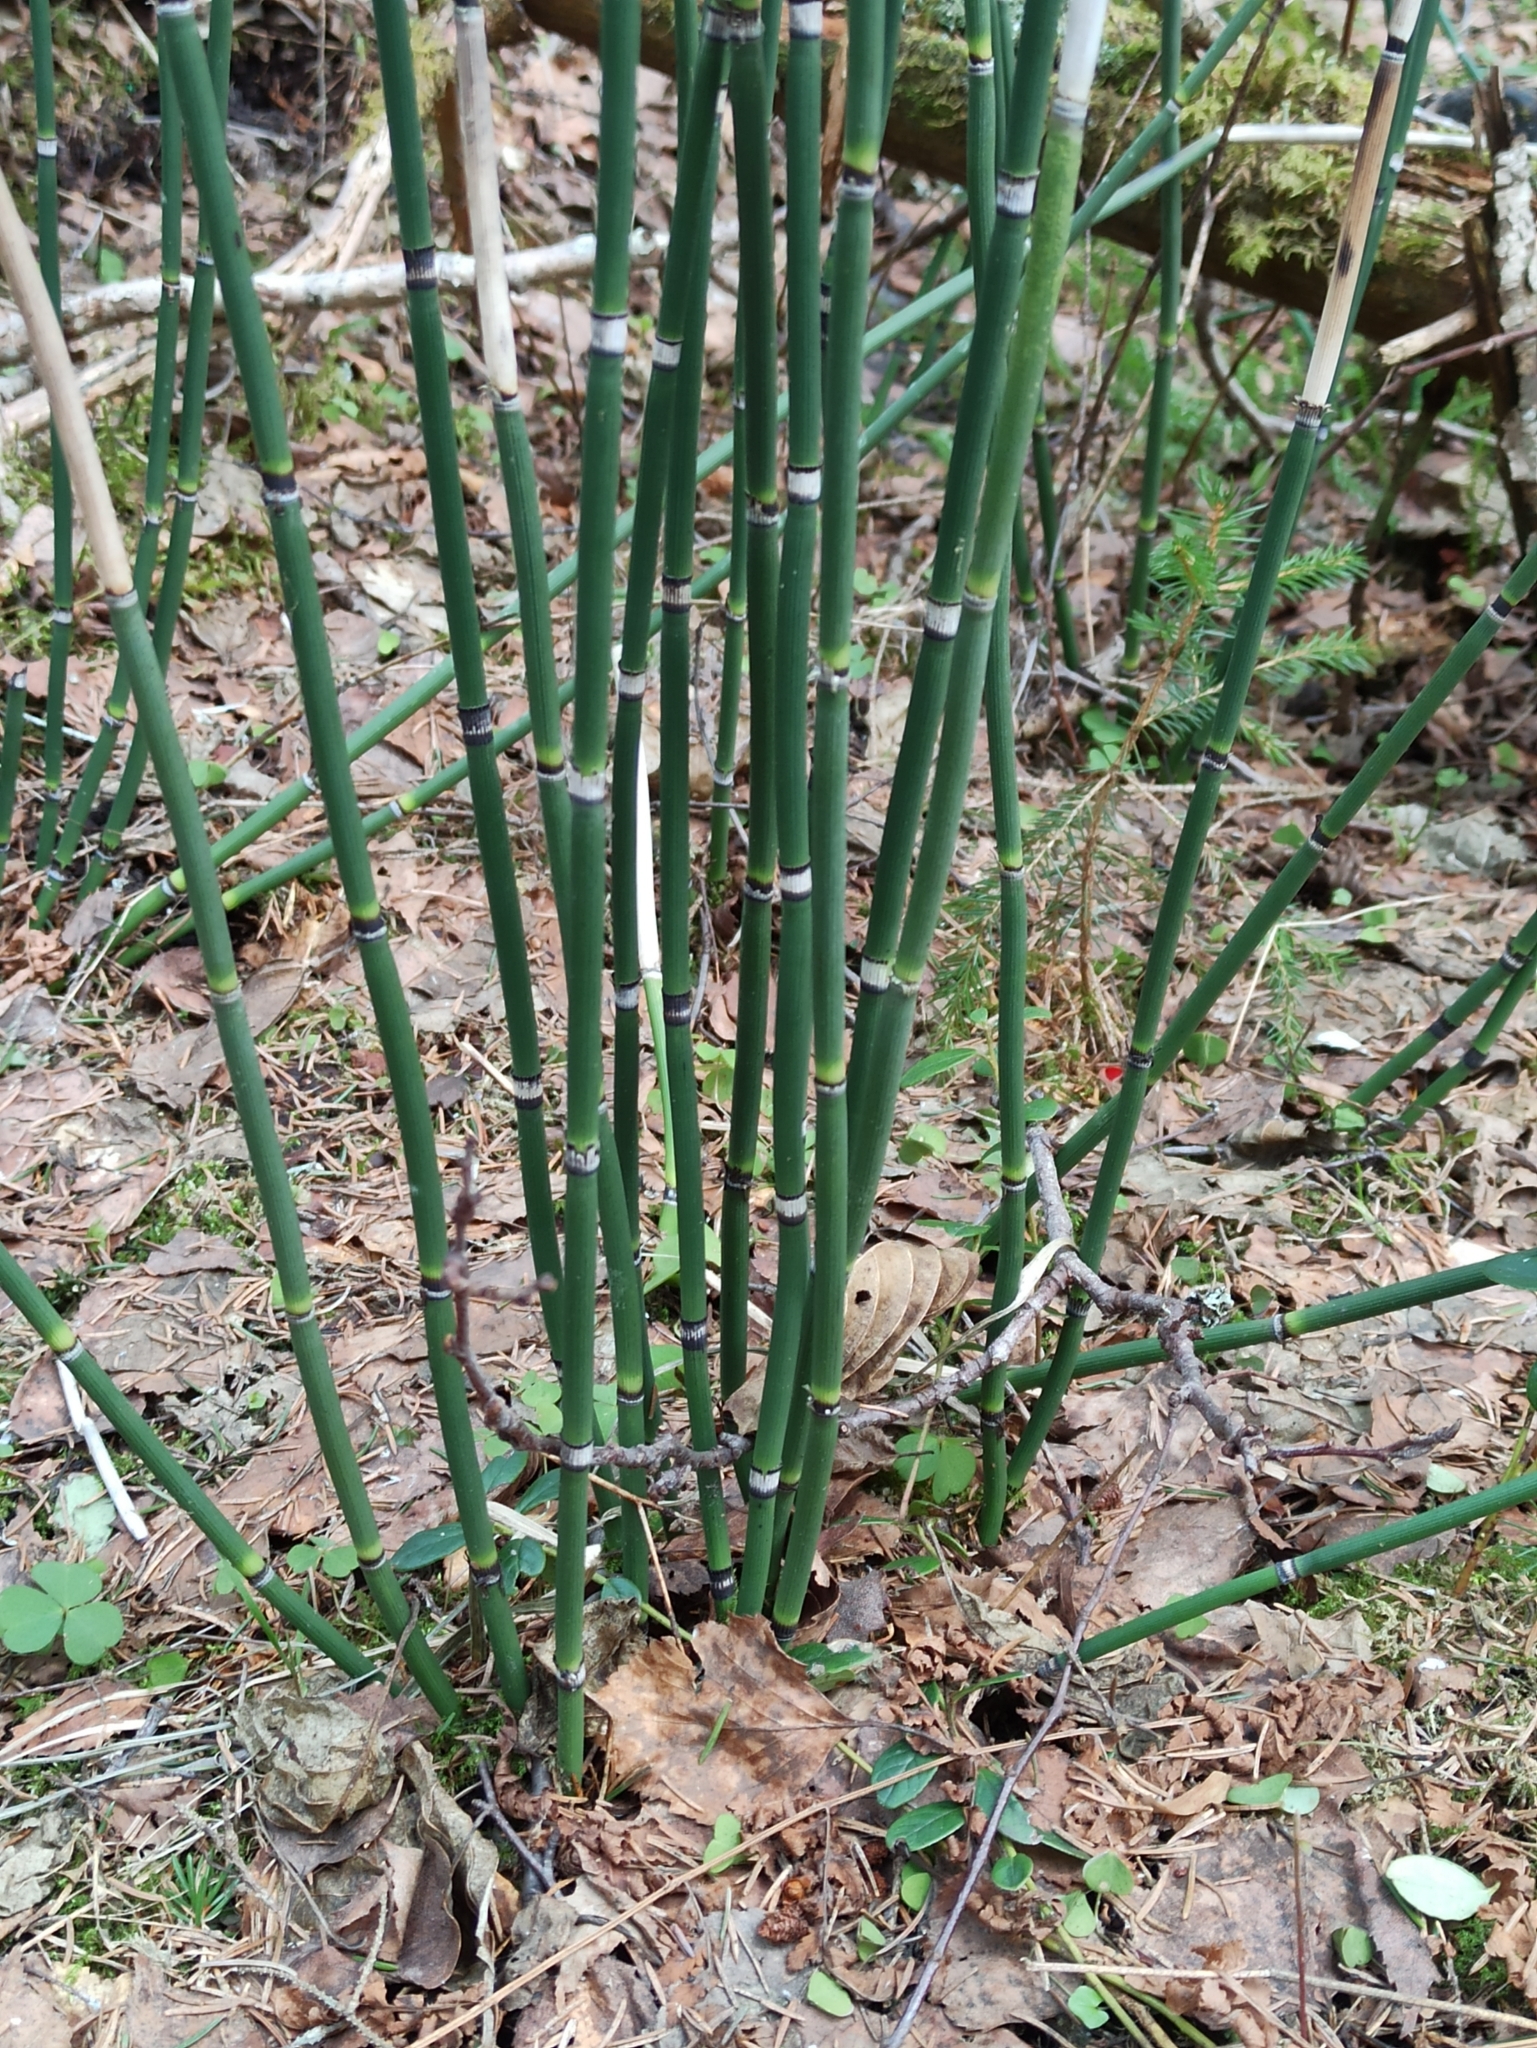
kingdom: Plantae
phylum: Tracheophyta
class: Polypodiopsida
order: Equisetales
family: Equisetaceae
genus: Equisetum
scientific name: Equisetum hyemale
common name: Rough horsetail
